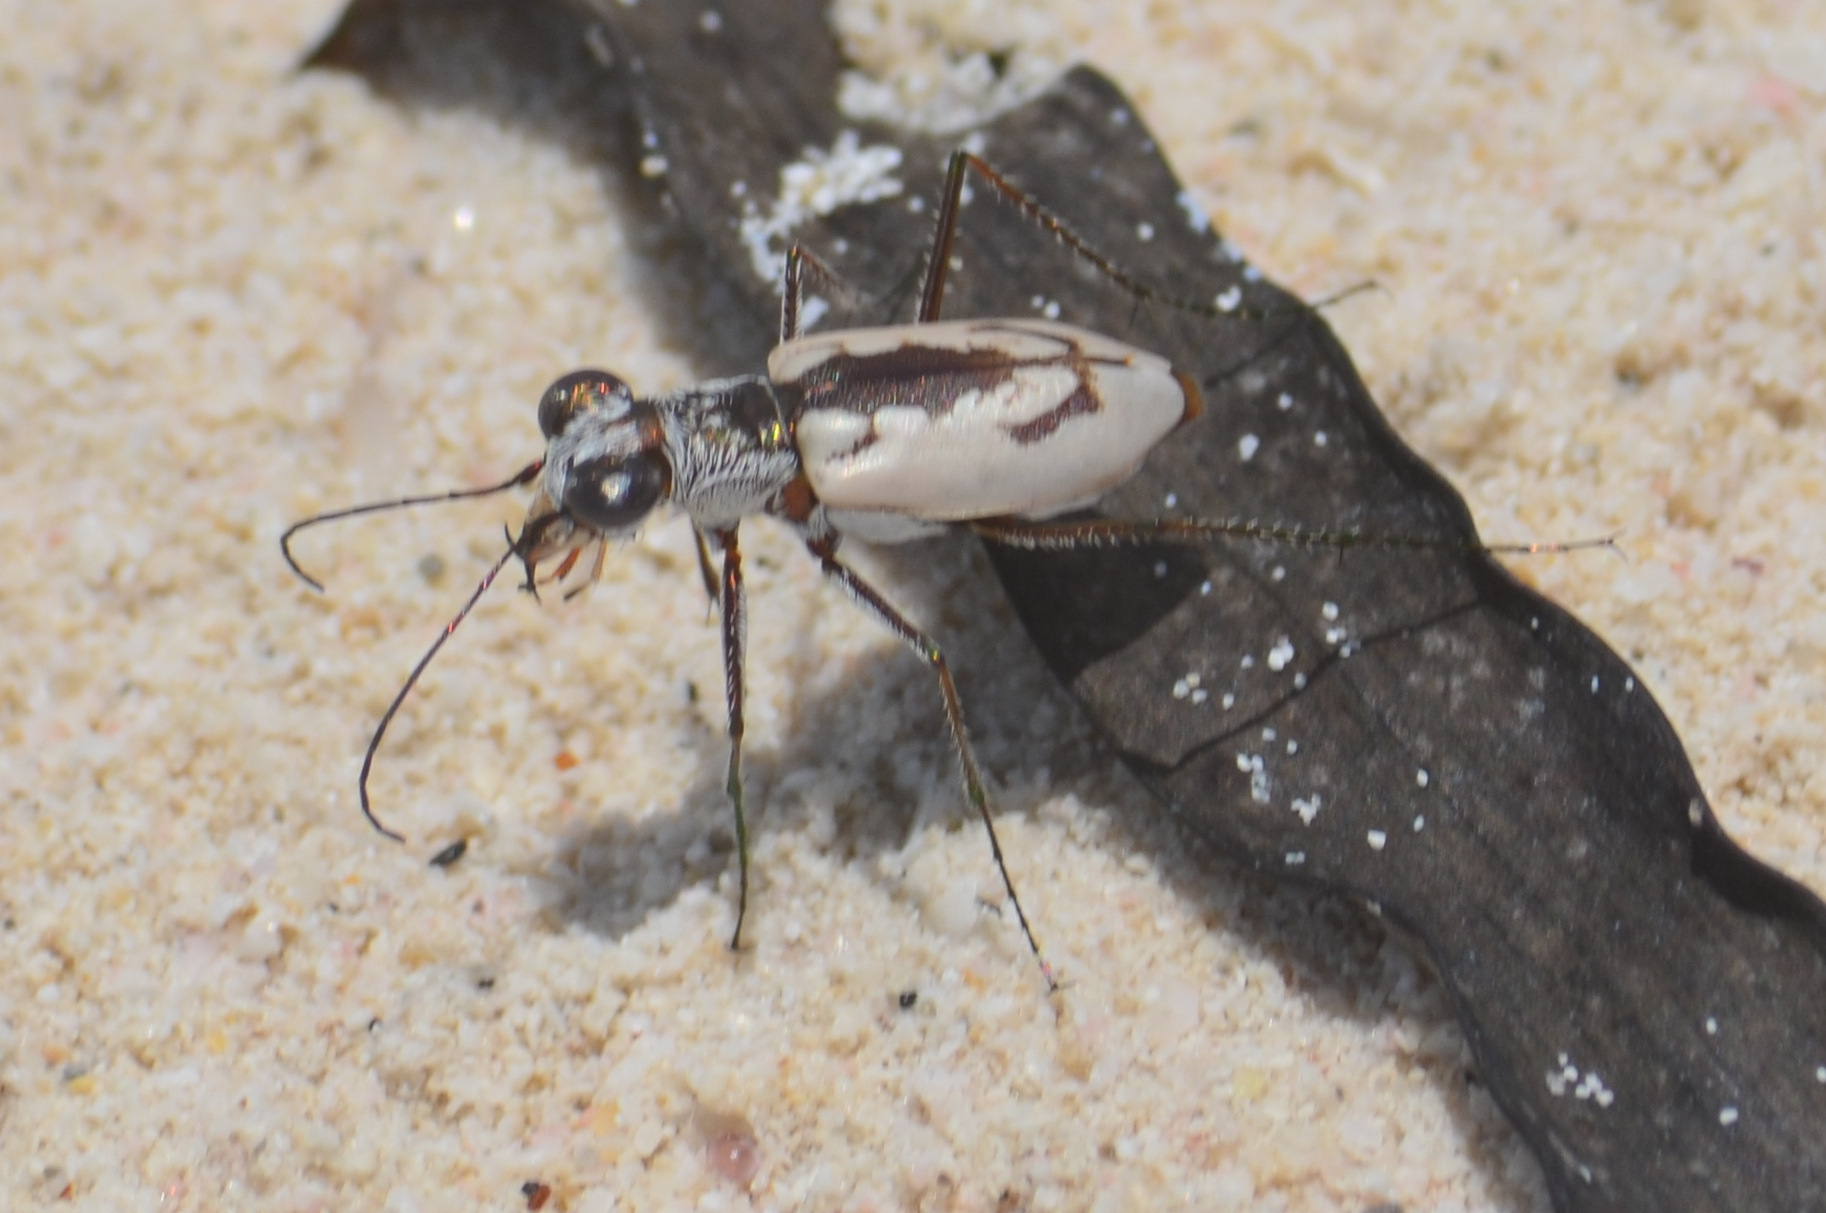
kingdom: Animalia
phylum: Arthropoda
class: Insecta
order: Coleoptera
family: Carabidae
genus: Ellipsoptera
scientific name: Ellipsoptera hamata
